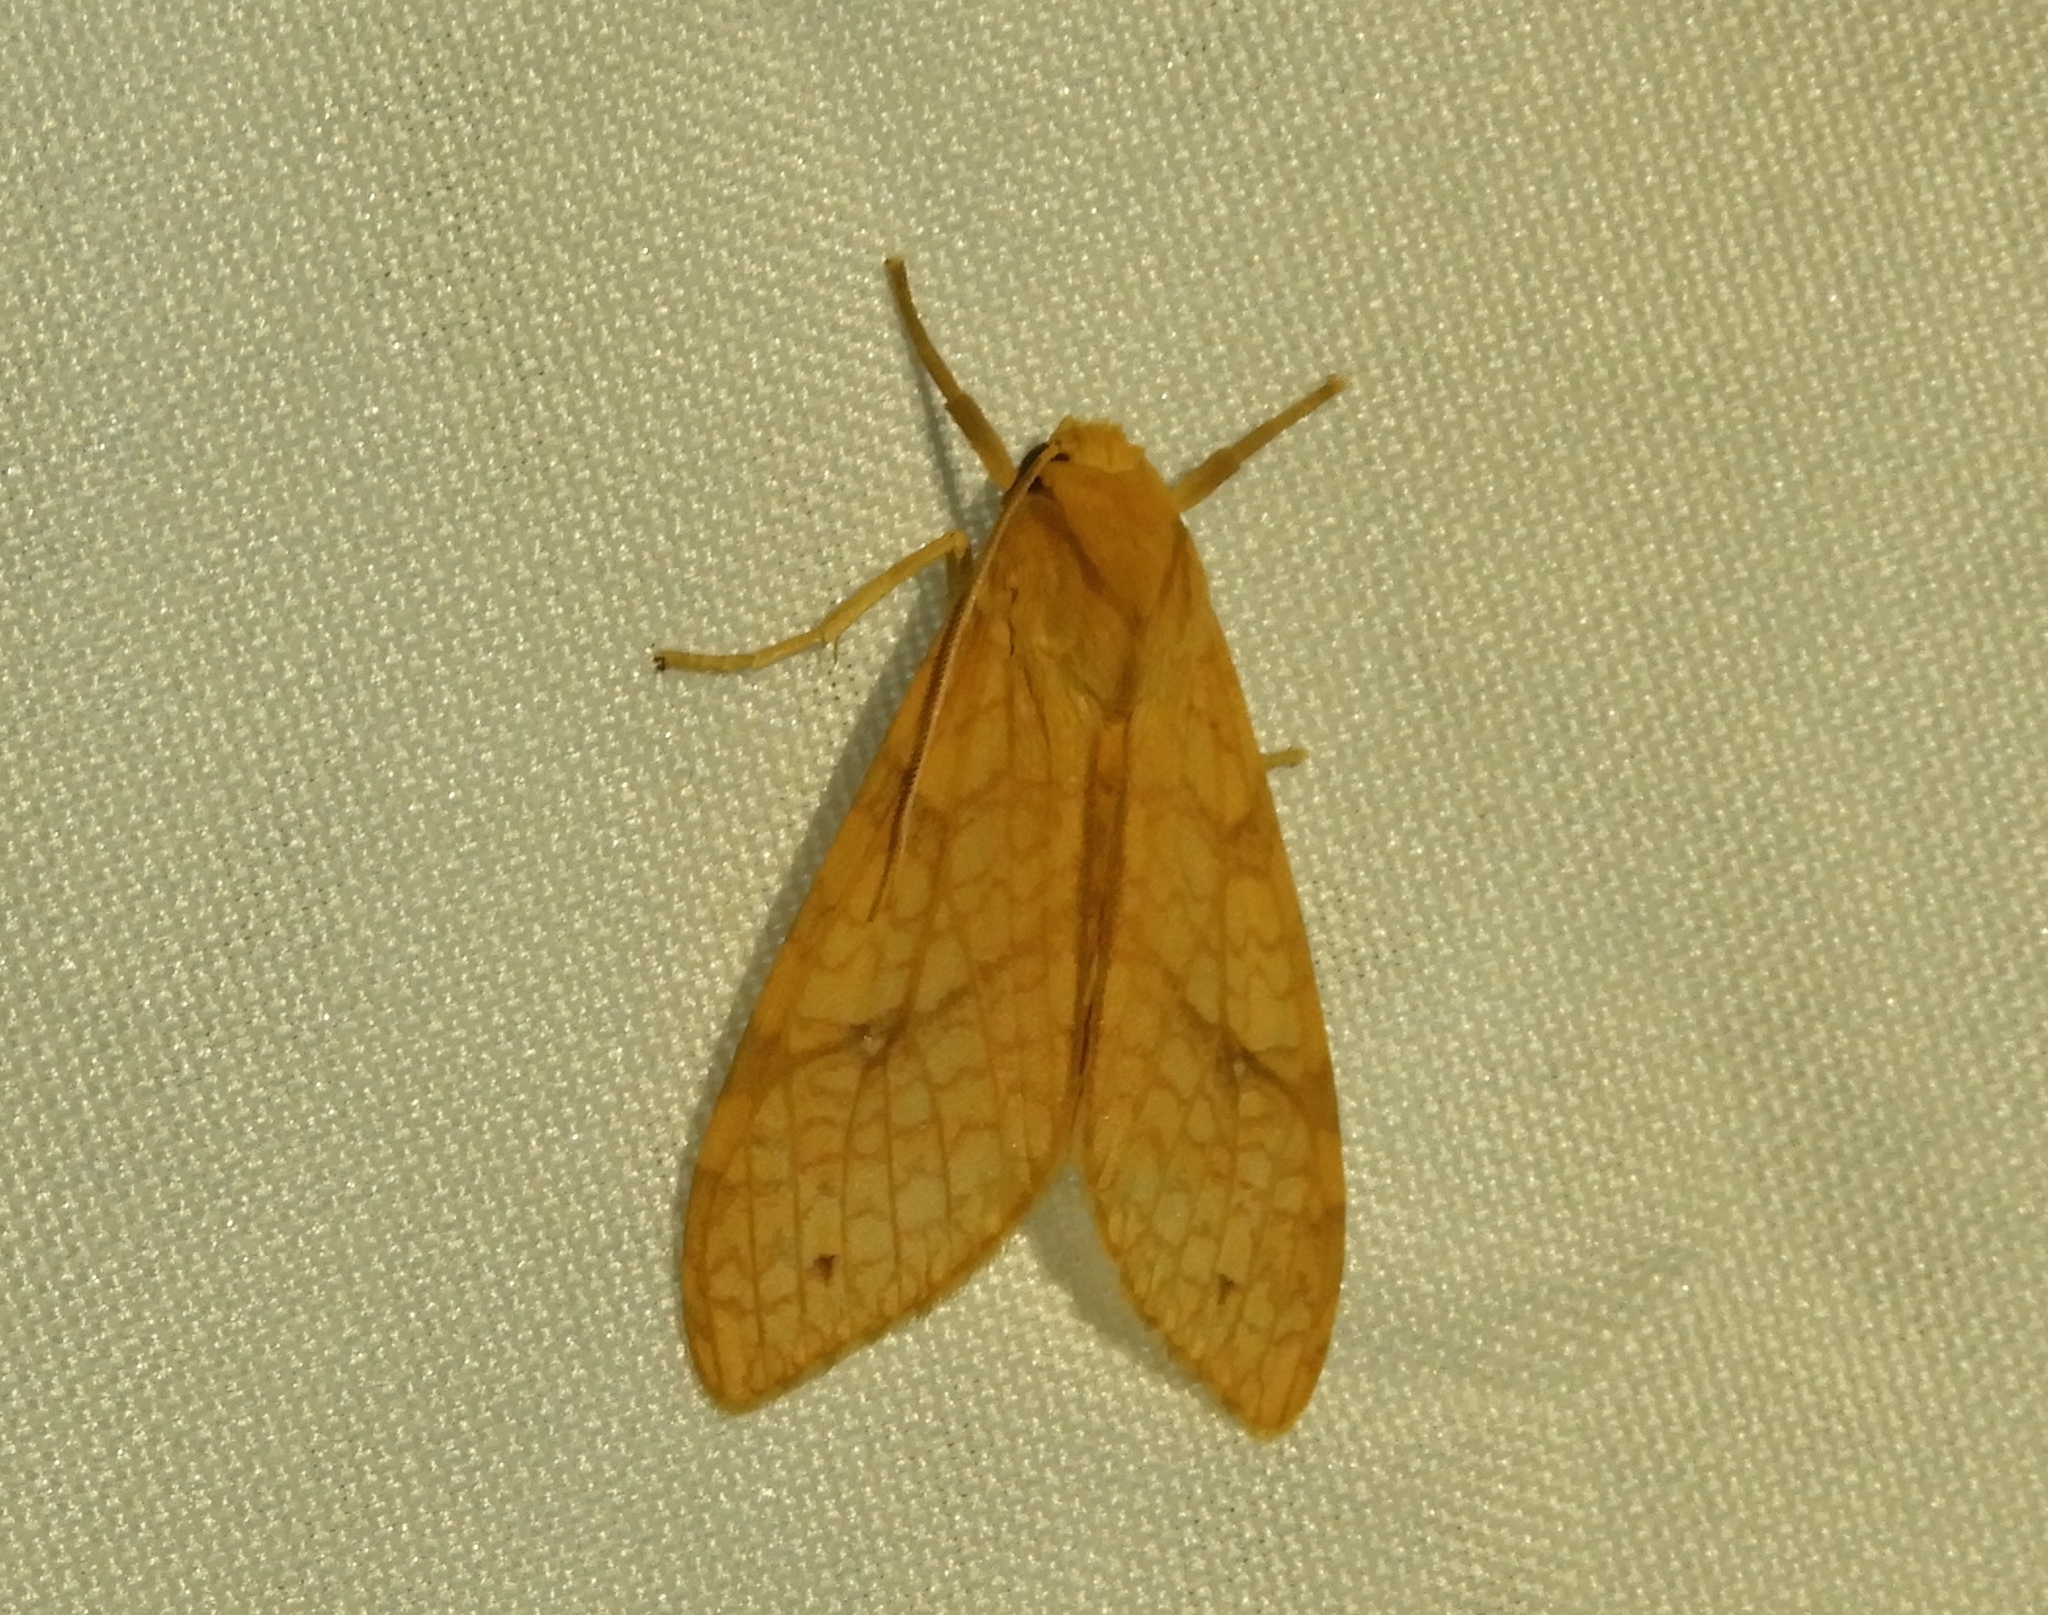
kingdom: Animalia
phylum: Arthropoda
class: Insecta
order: Lepidoptera
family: Erebidae
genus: Lophocampa
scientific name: Lophocampa annulosa
